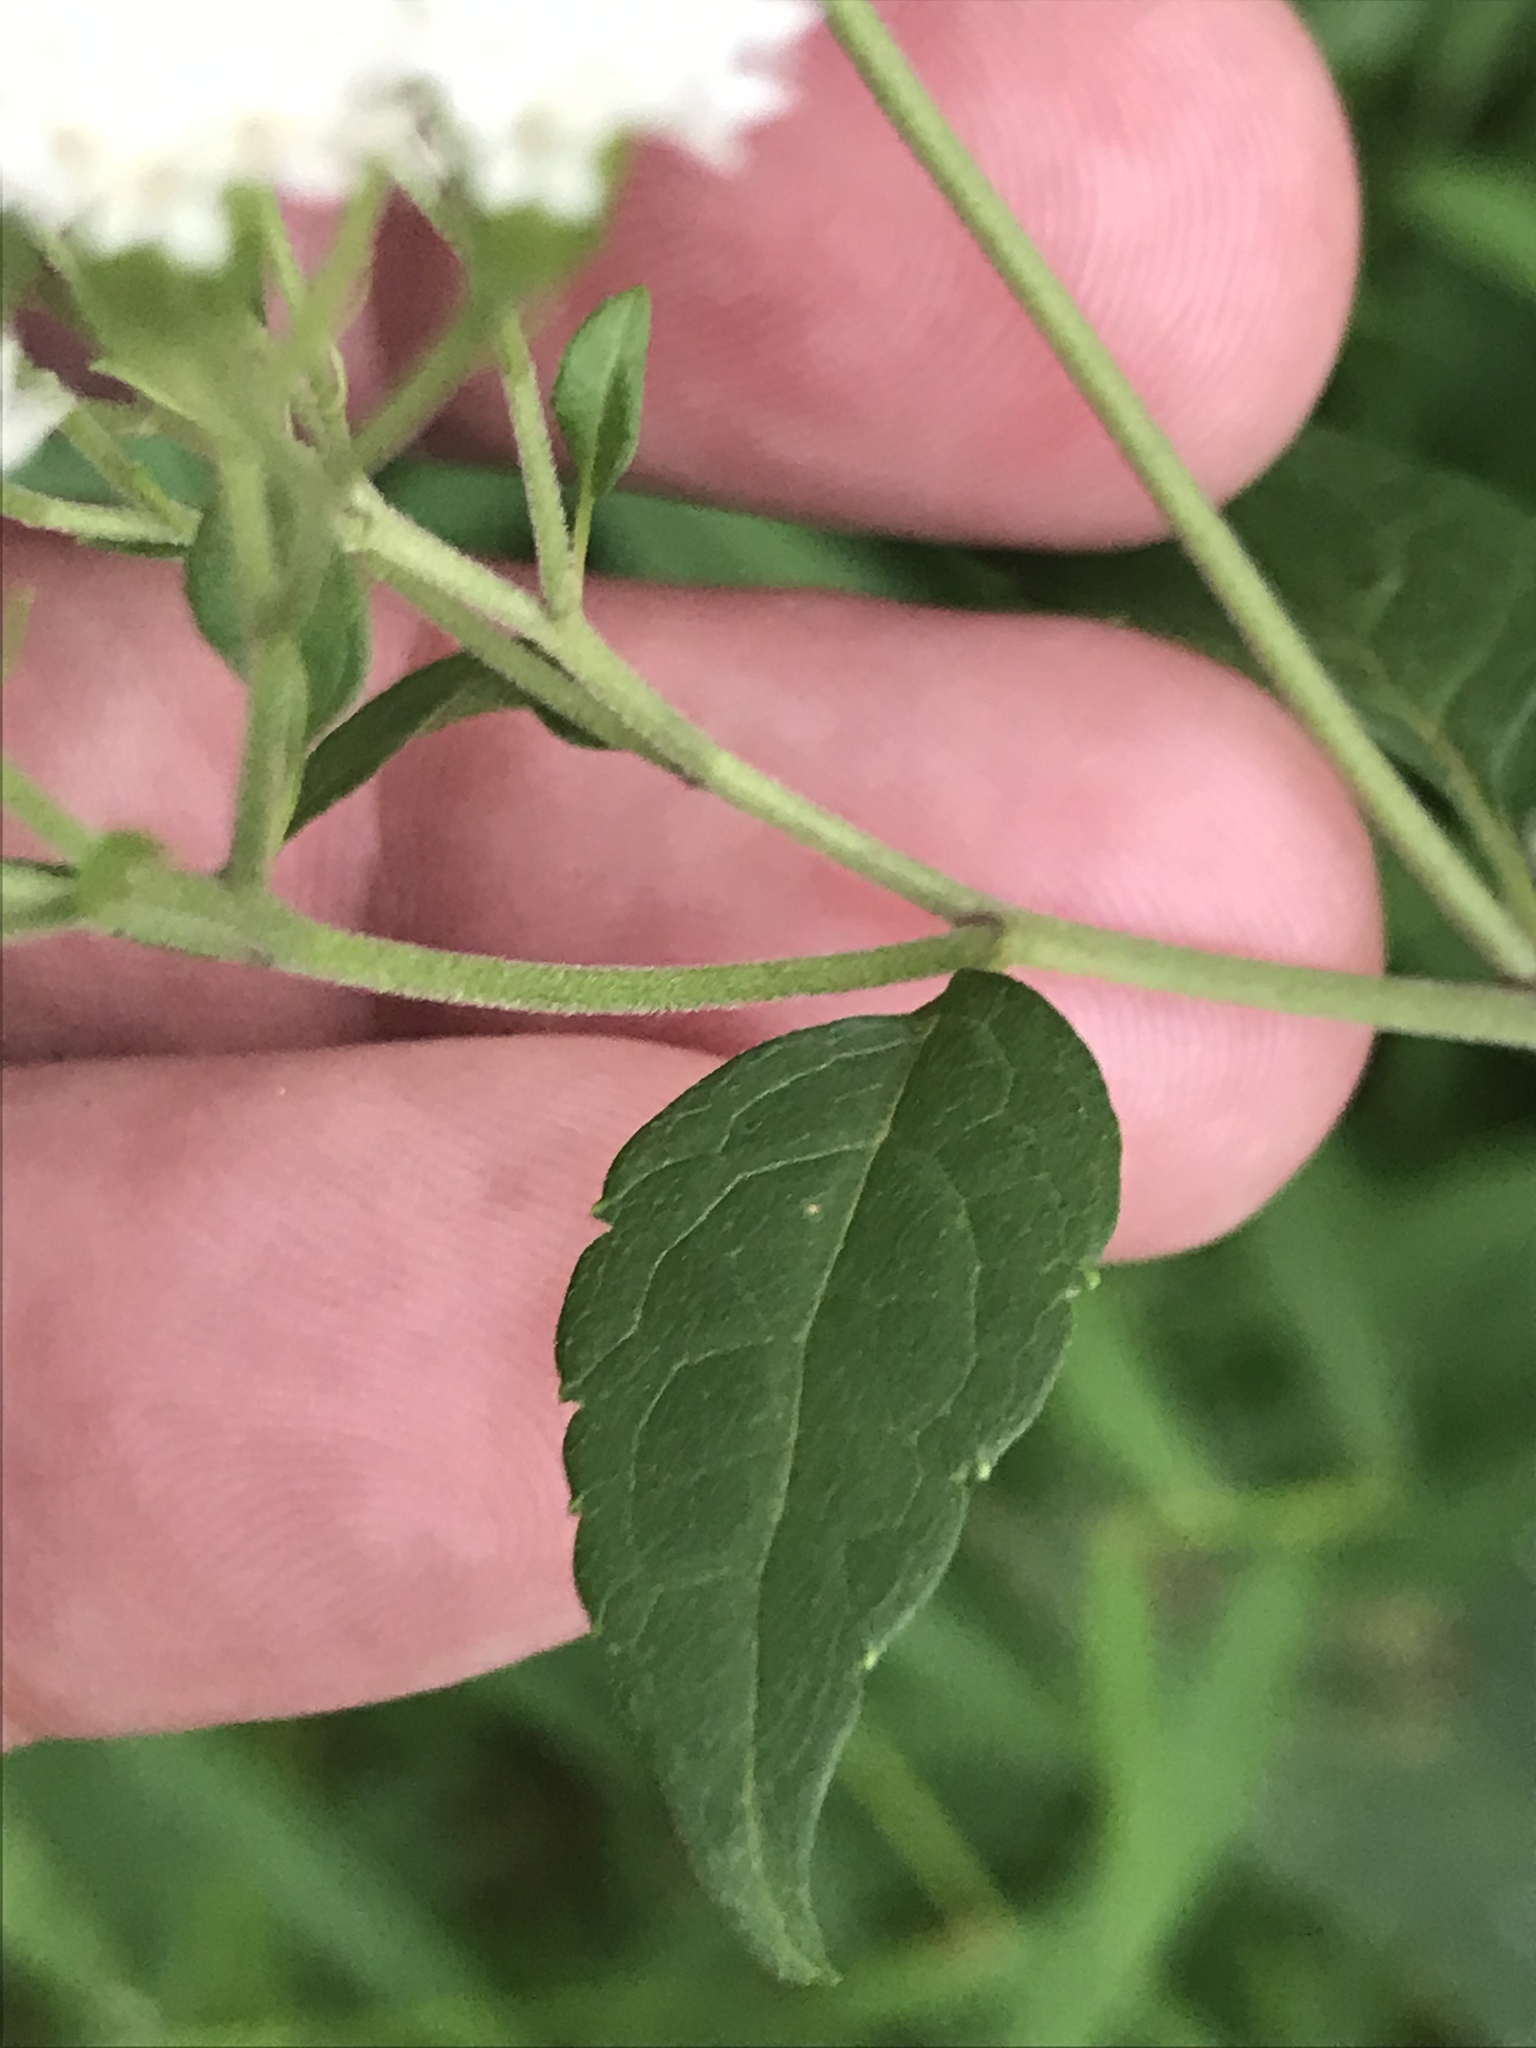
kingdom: Plantae
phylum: Tracheophyta
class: Magnoliopsida
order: Asterales
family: Asteraceae
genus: Ageratina
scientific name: Ageratina altissima
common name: White snakeroot
